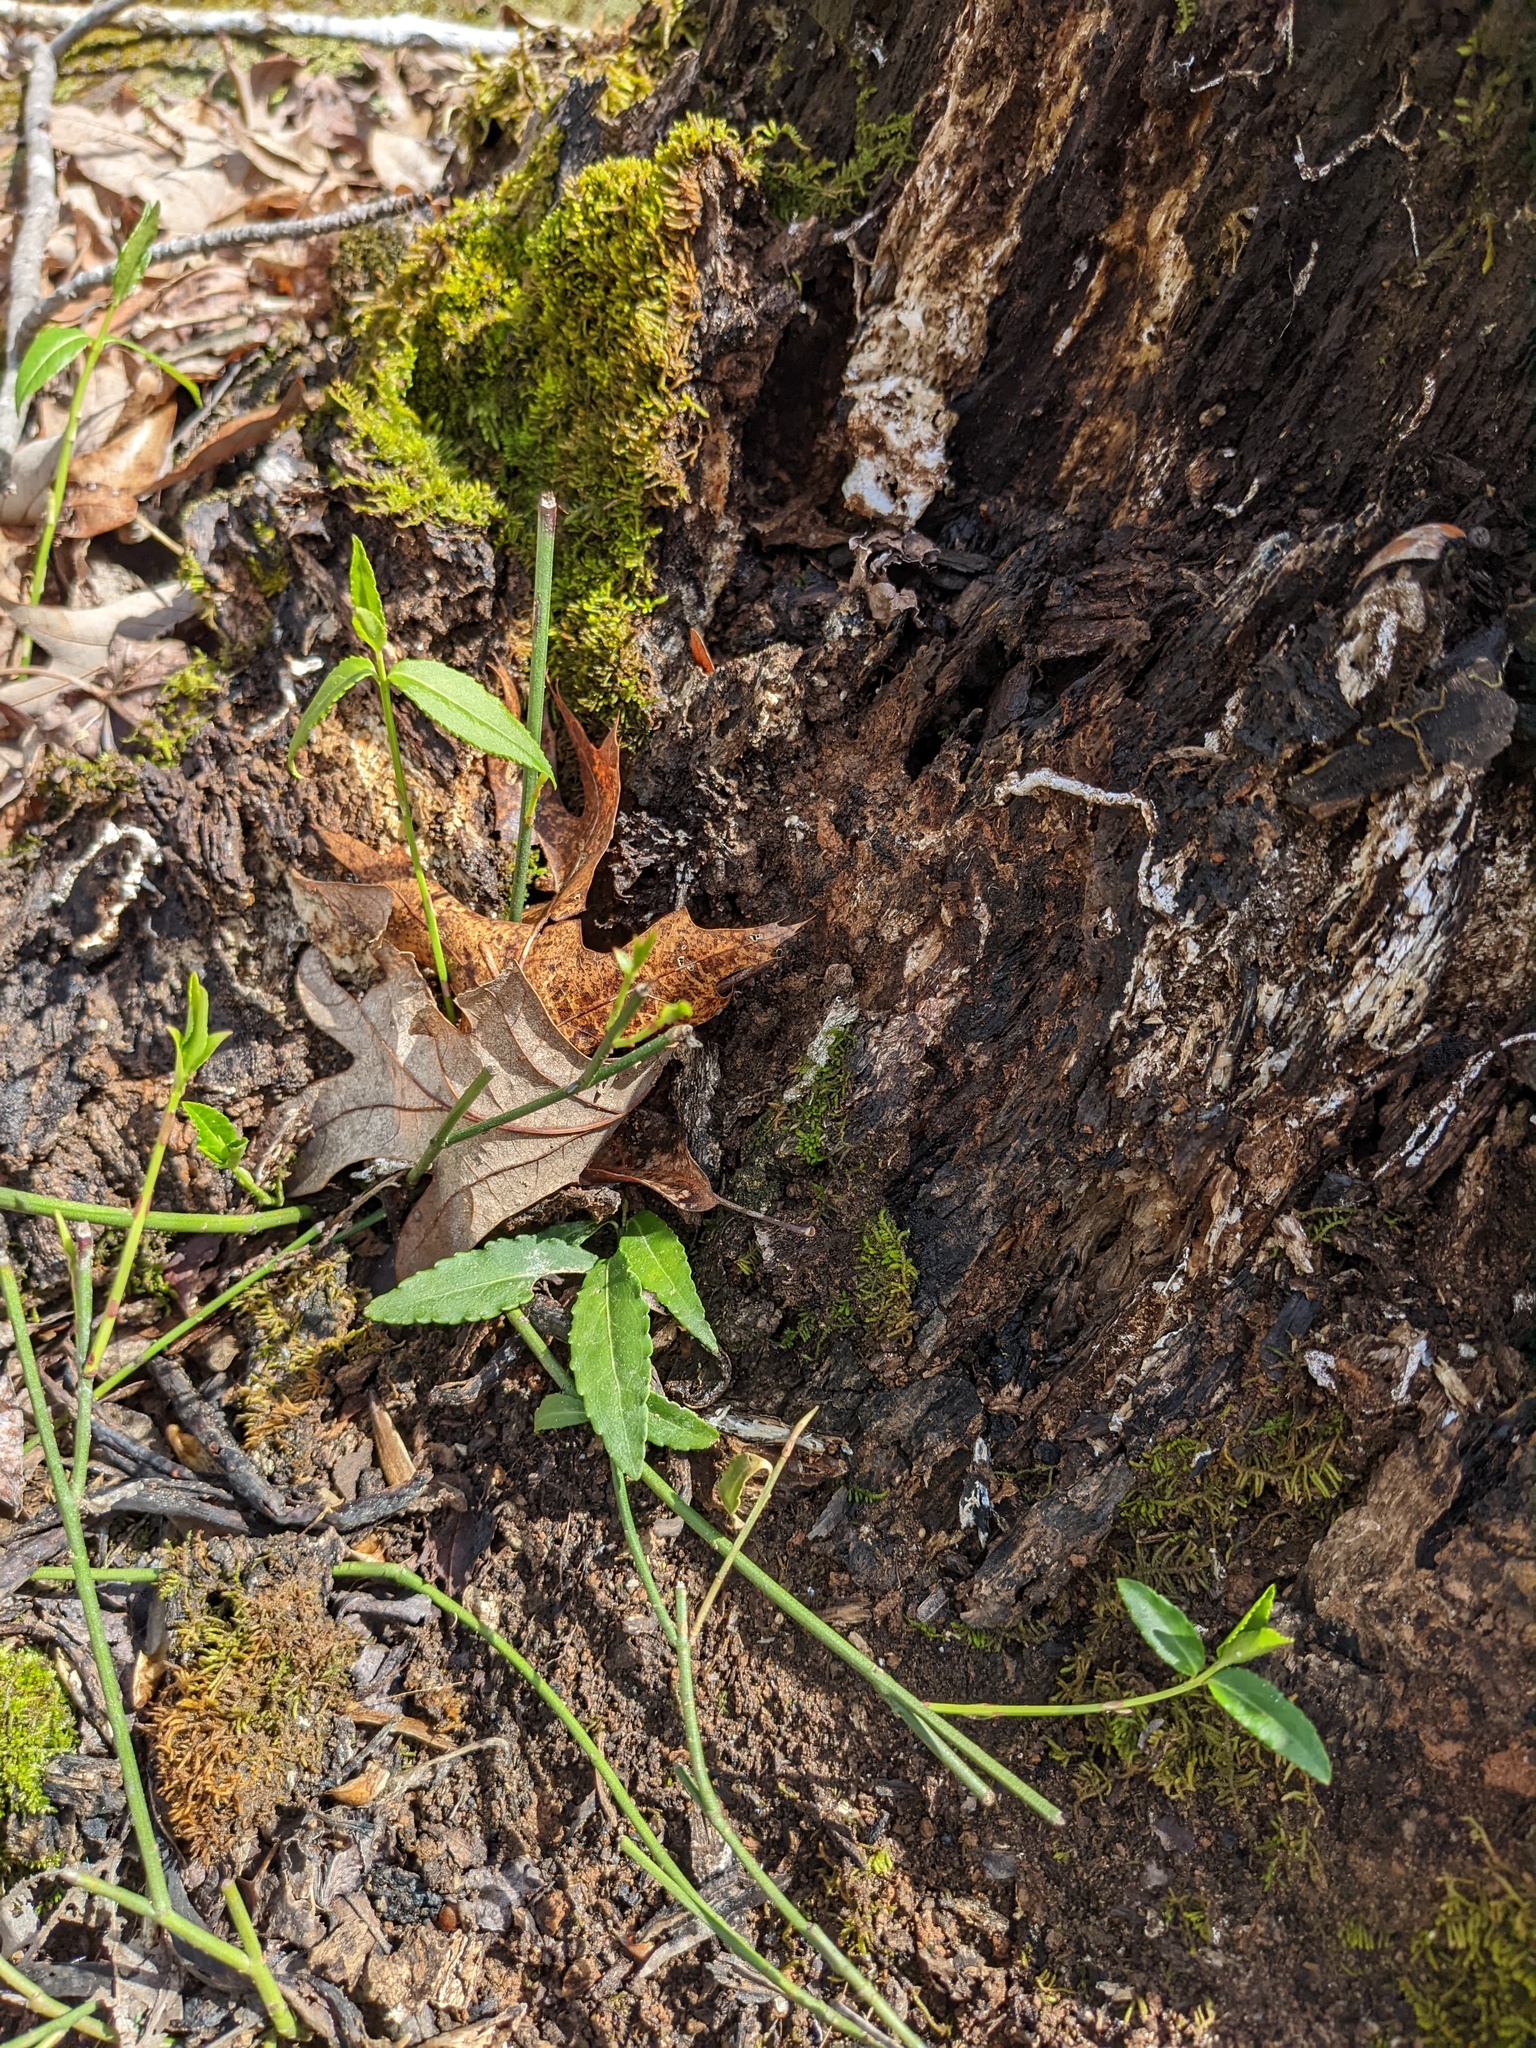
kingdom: Plantae
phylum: Tracheophyta
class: Magnoliopsida
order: Celastrales
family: Celastraceae
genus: Euonymus
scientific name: Euonymus americanus
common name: Bursting-heart
